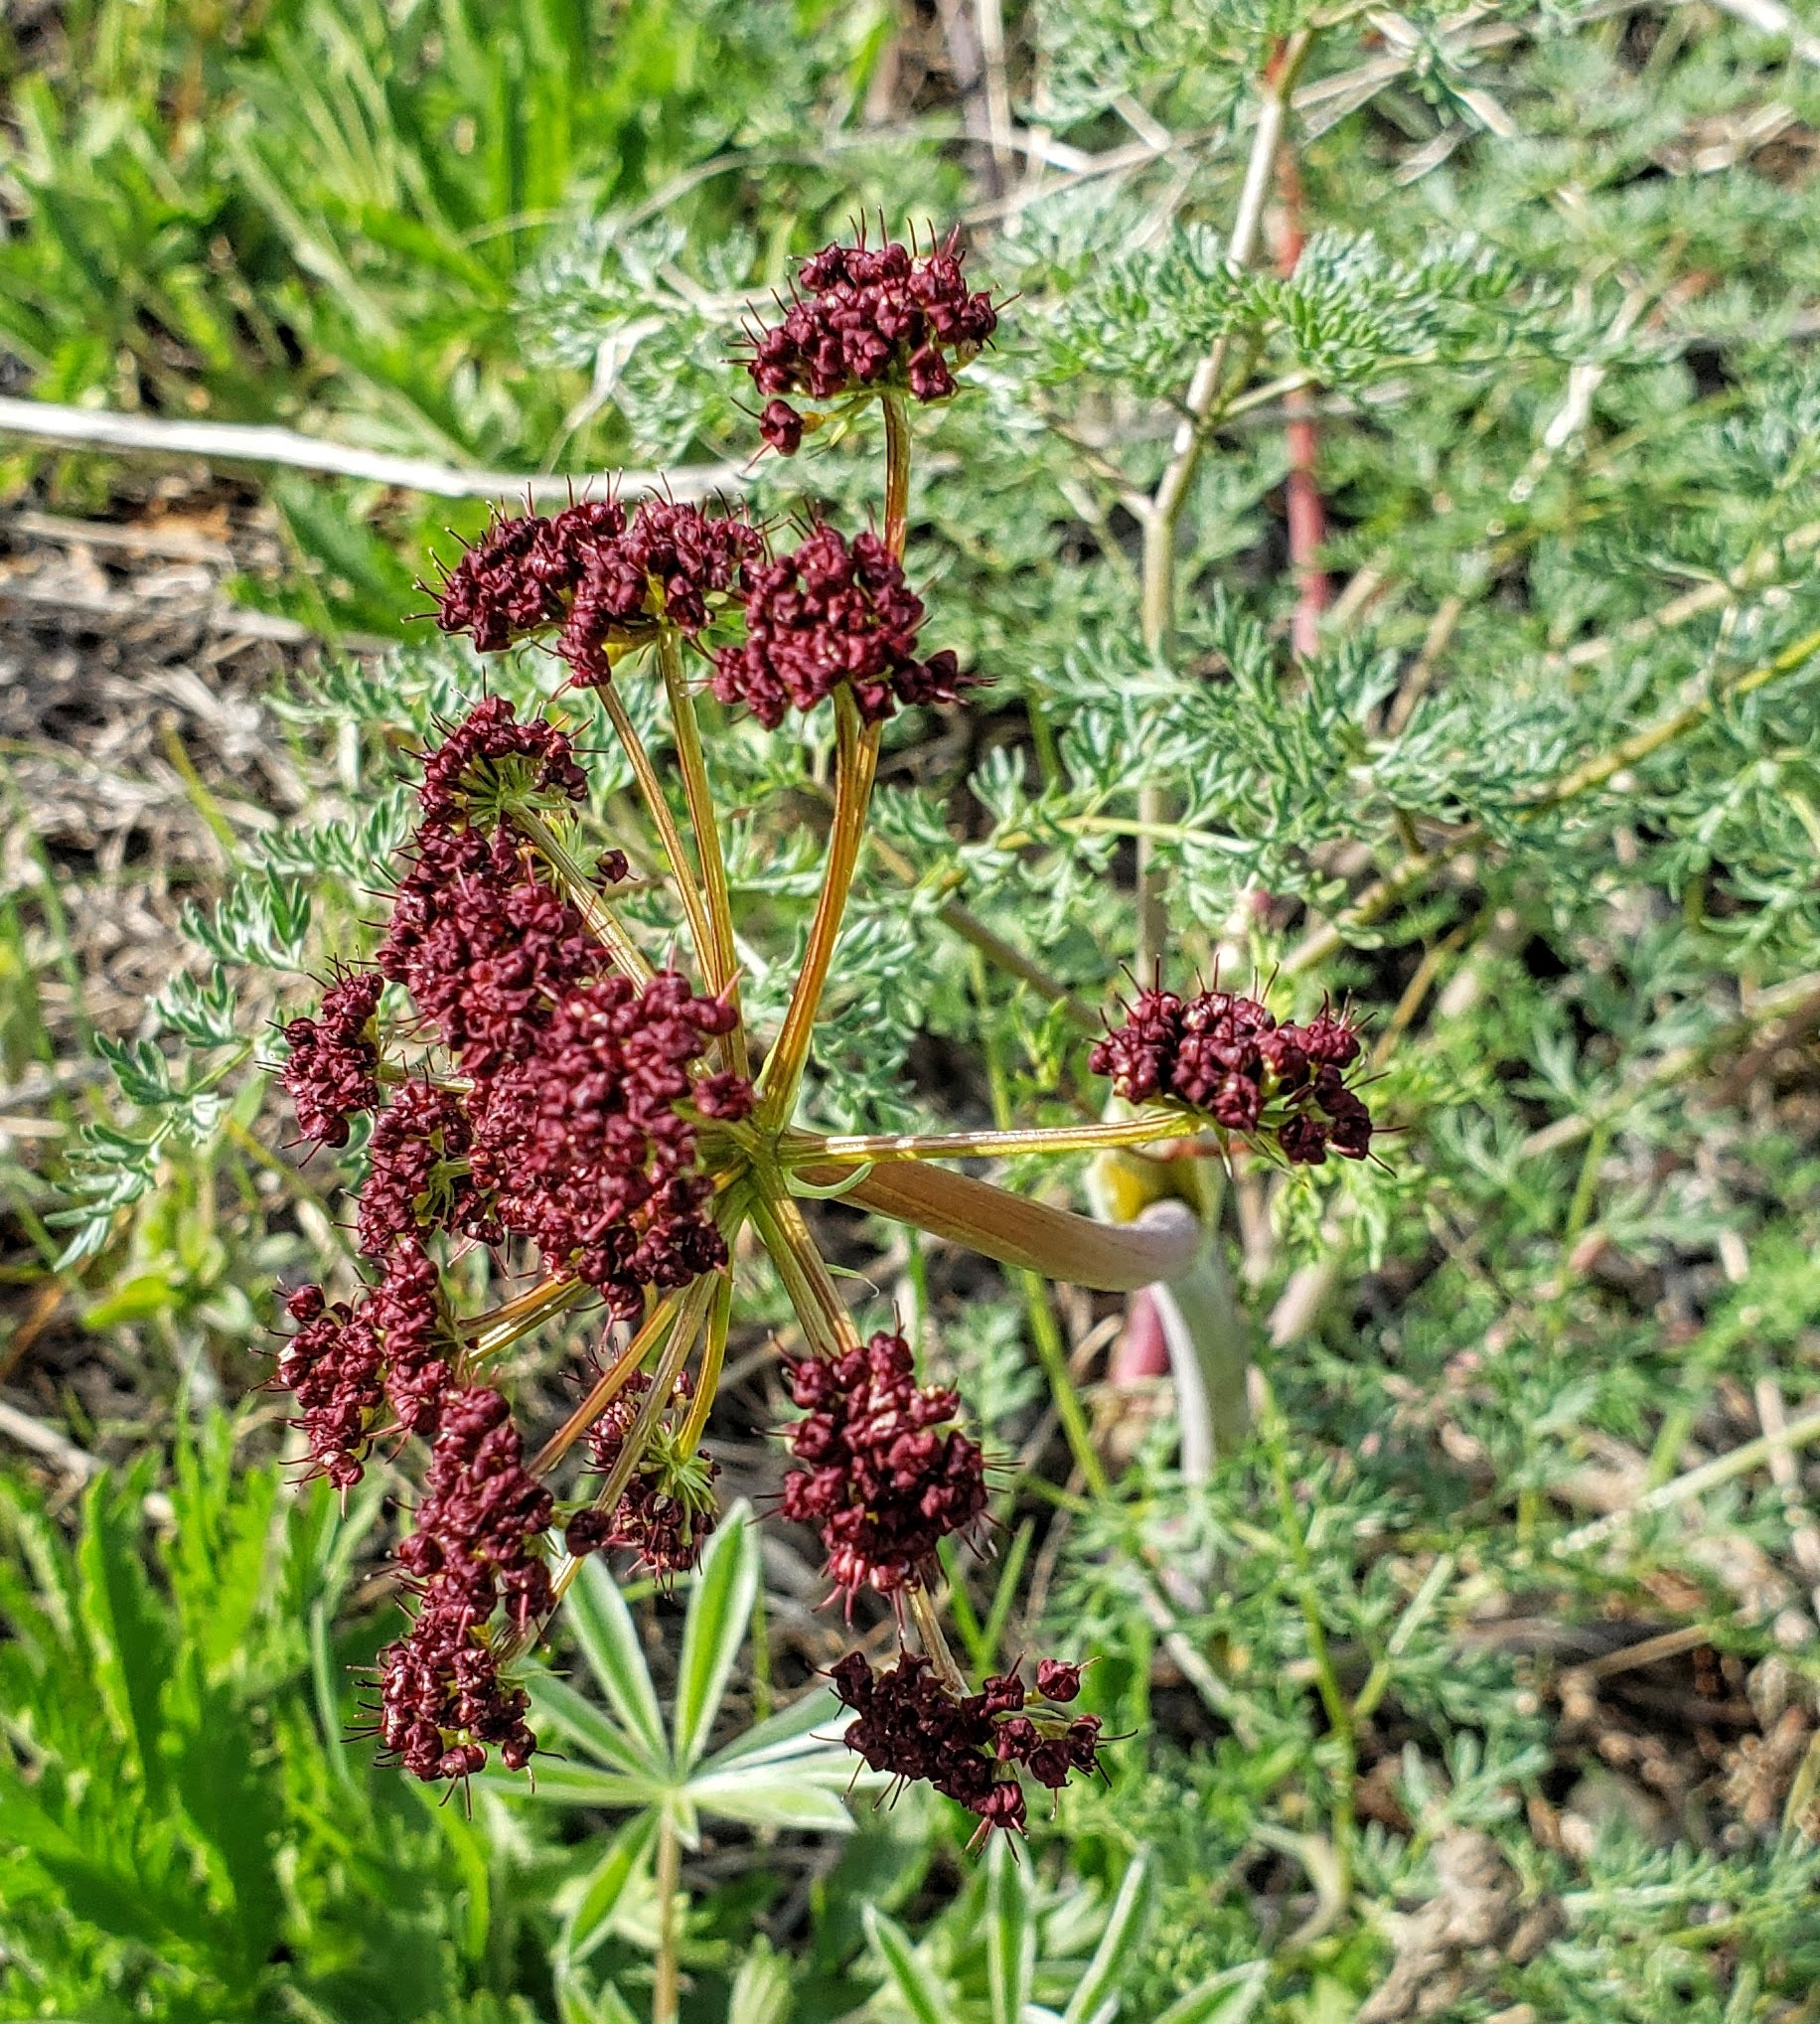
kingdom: Plantae
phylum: Tracheophyta
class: Magnoliopsida
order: Apiales
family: Apiaceae
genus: Lomatium
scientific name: Lomatium multifidum
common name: Carrot-leaved biscuitroot
